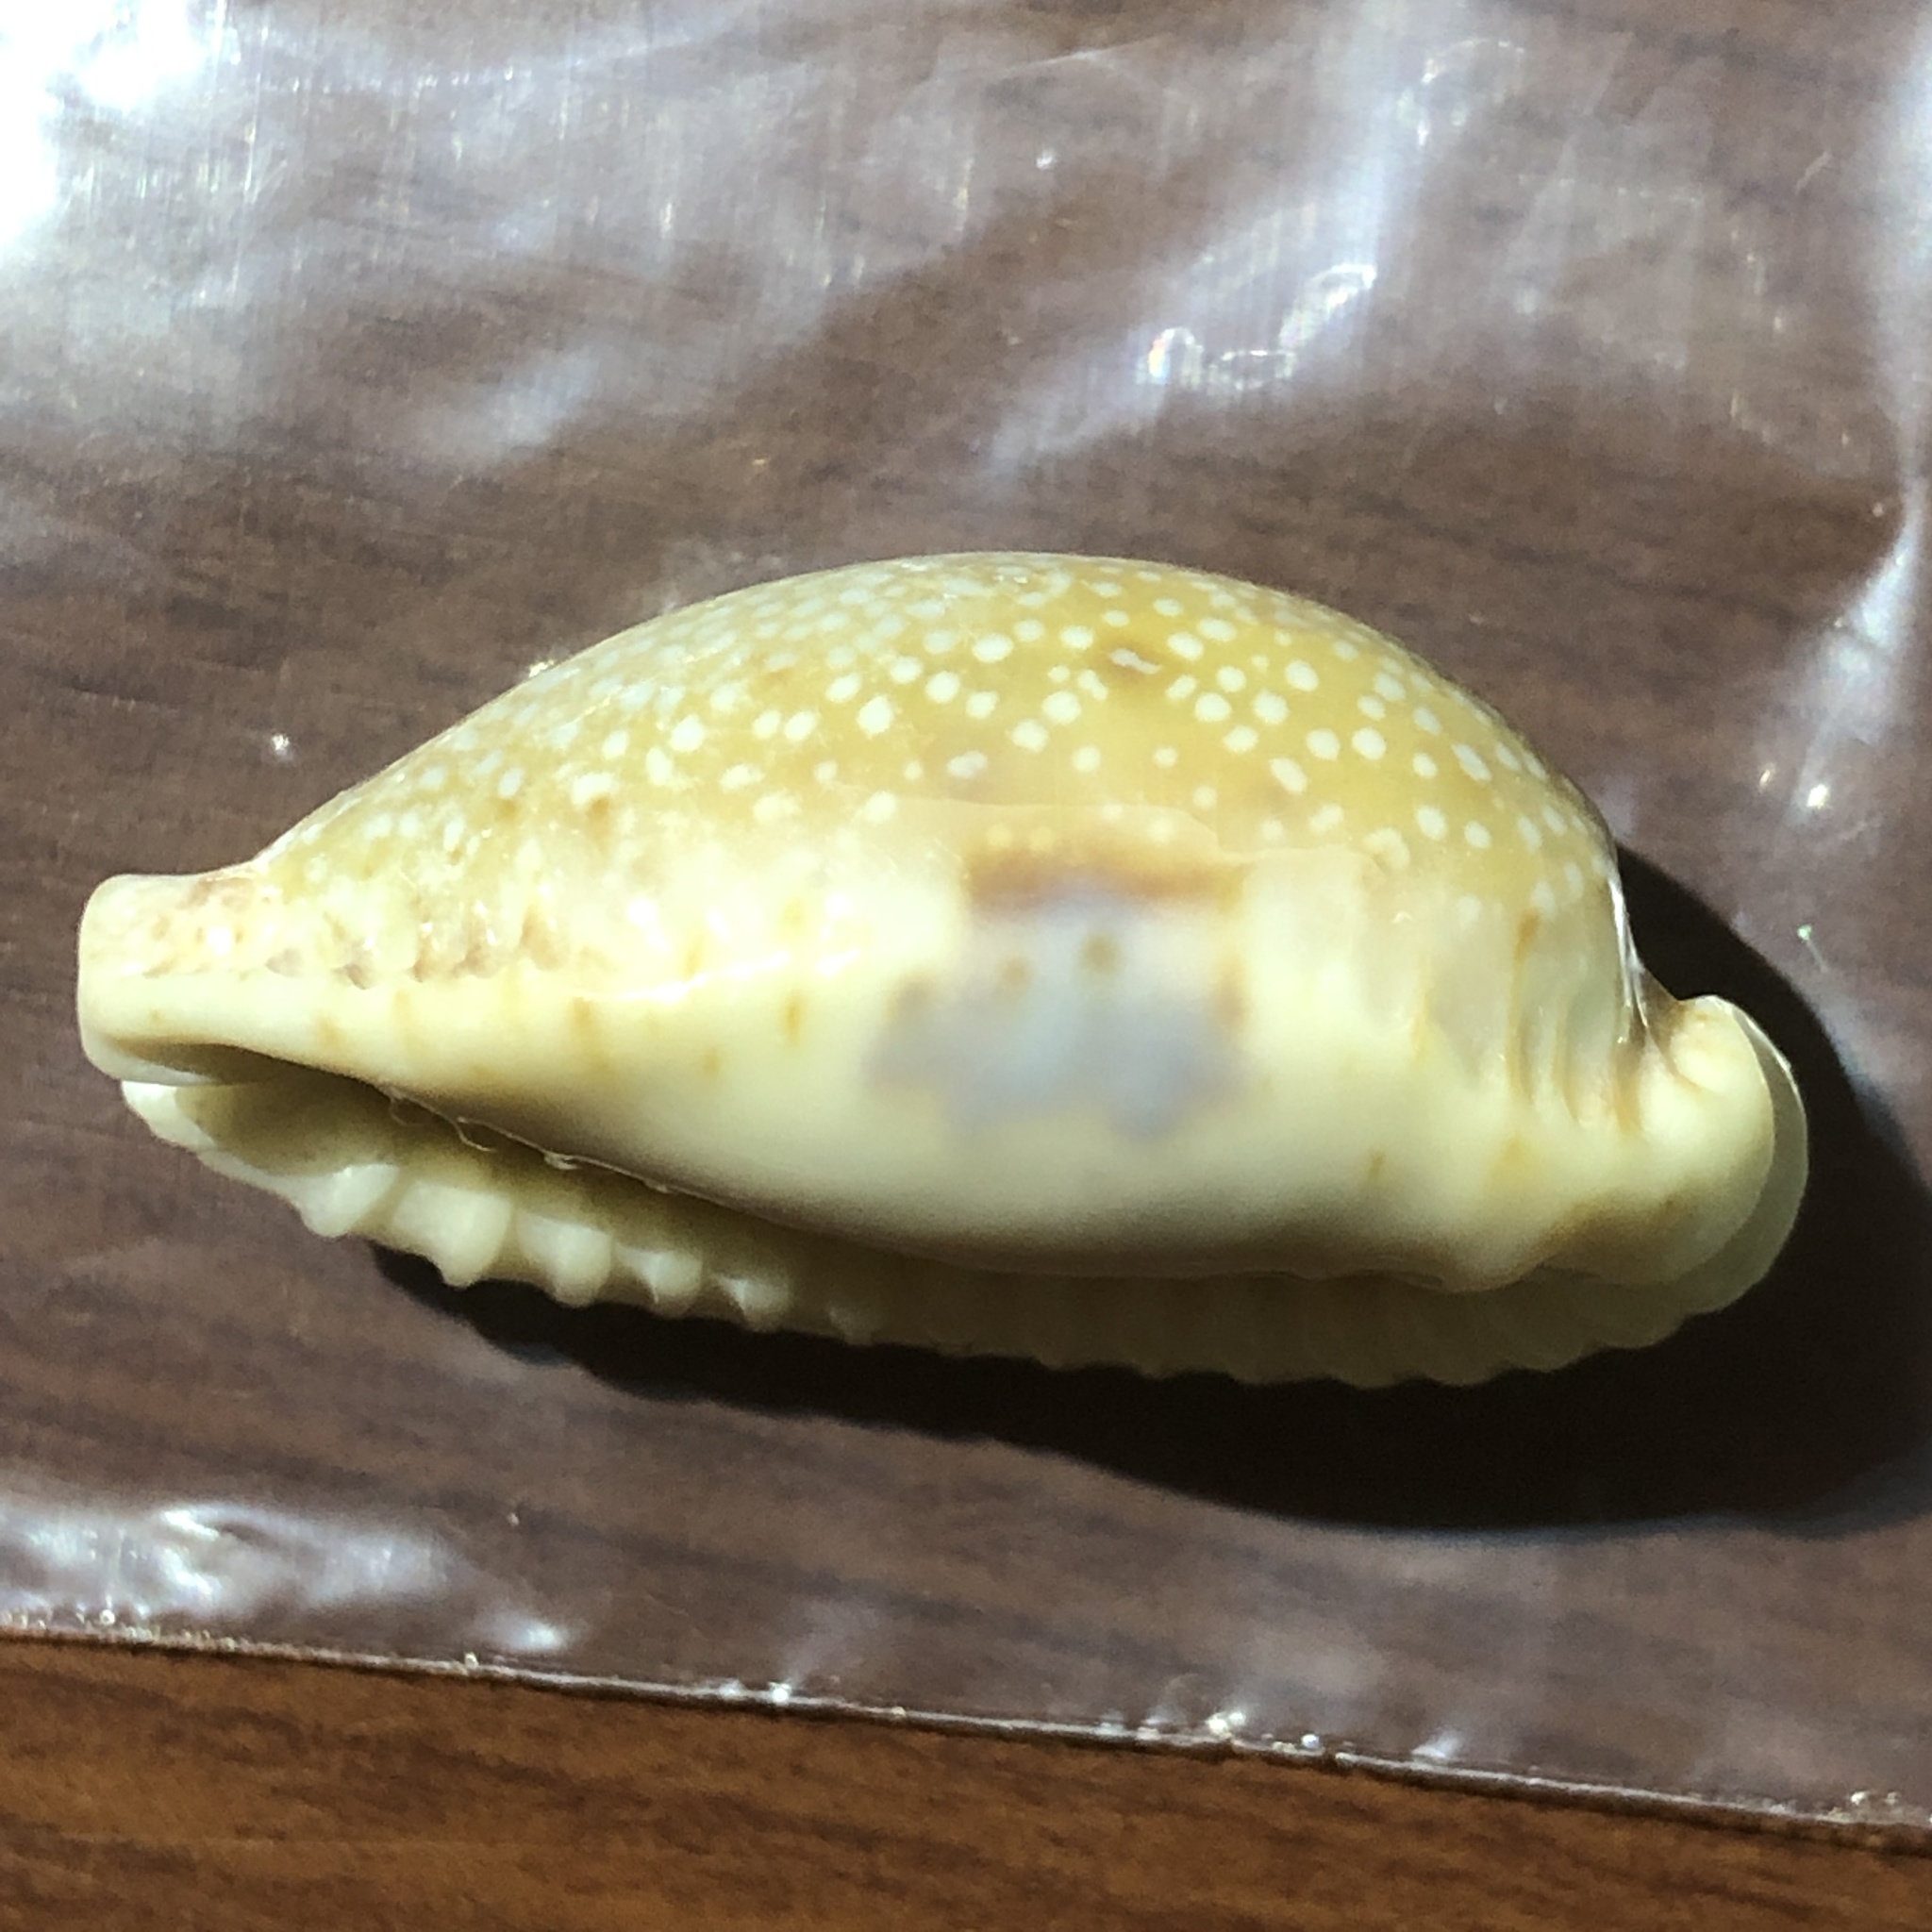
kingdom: Animalia
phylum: Mollusca
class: Gastropoda
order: Littorinimorpha
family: Cypraeidae
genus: Naria
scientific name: Naria erosa
